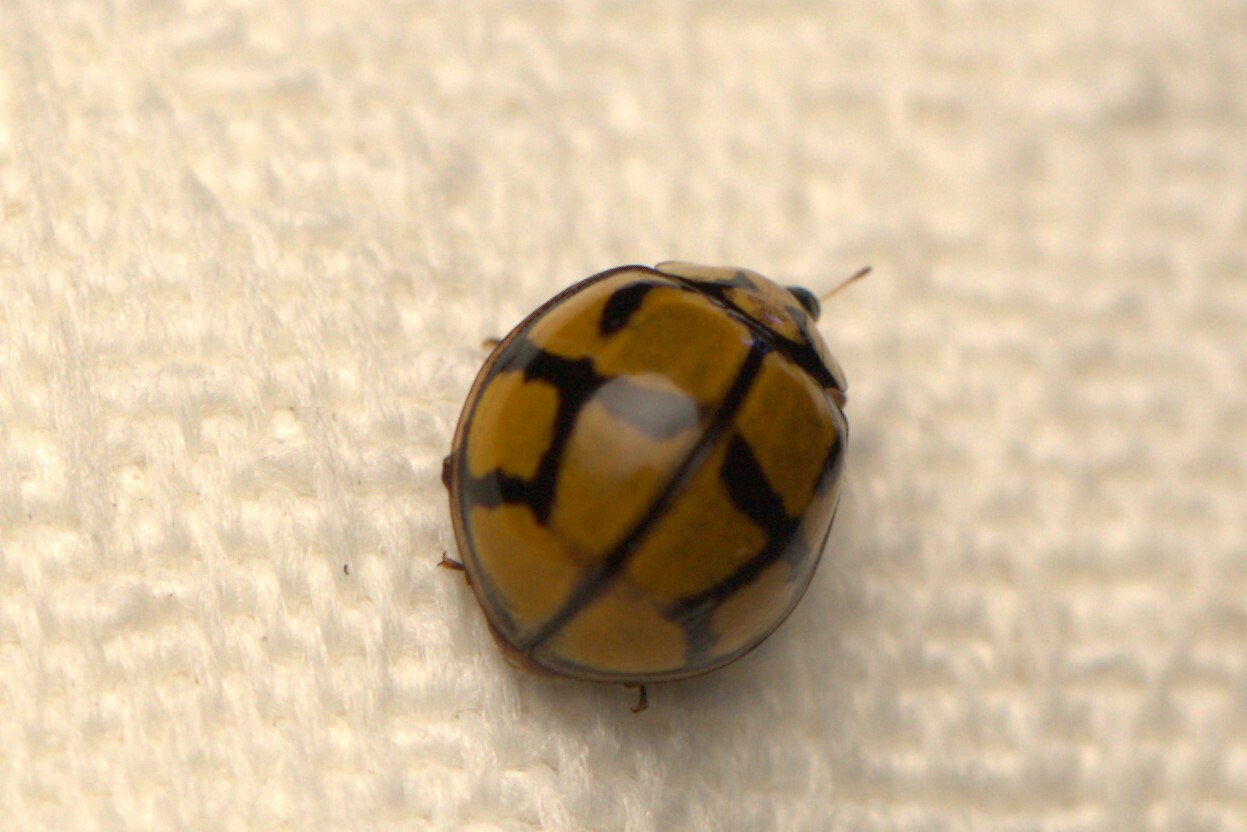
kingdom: Animalia
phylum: Arthropoda
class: Insecta
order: Coleoptera
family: Coccinellidae
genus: Harmonia
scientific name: Harmonia
